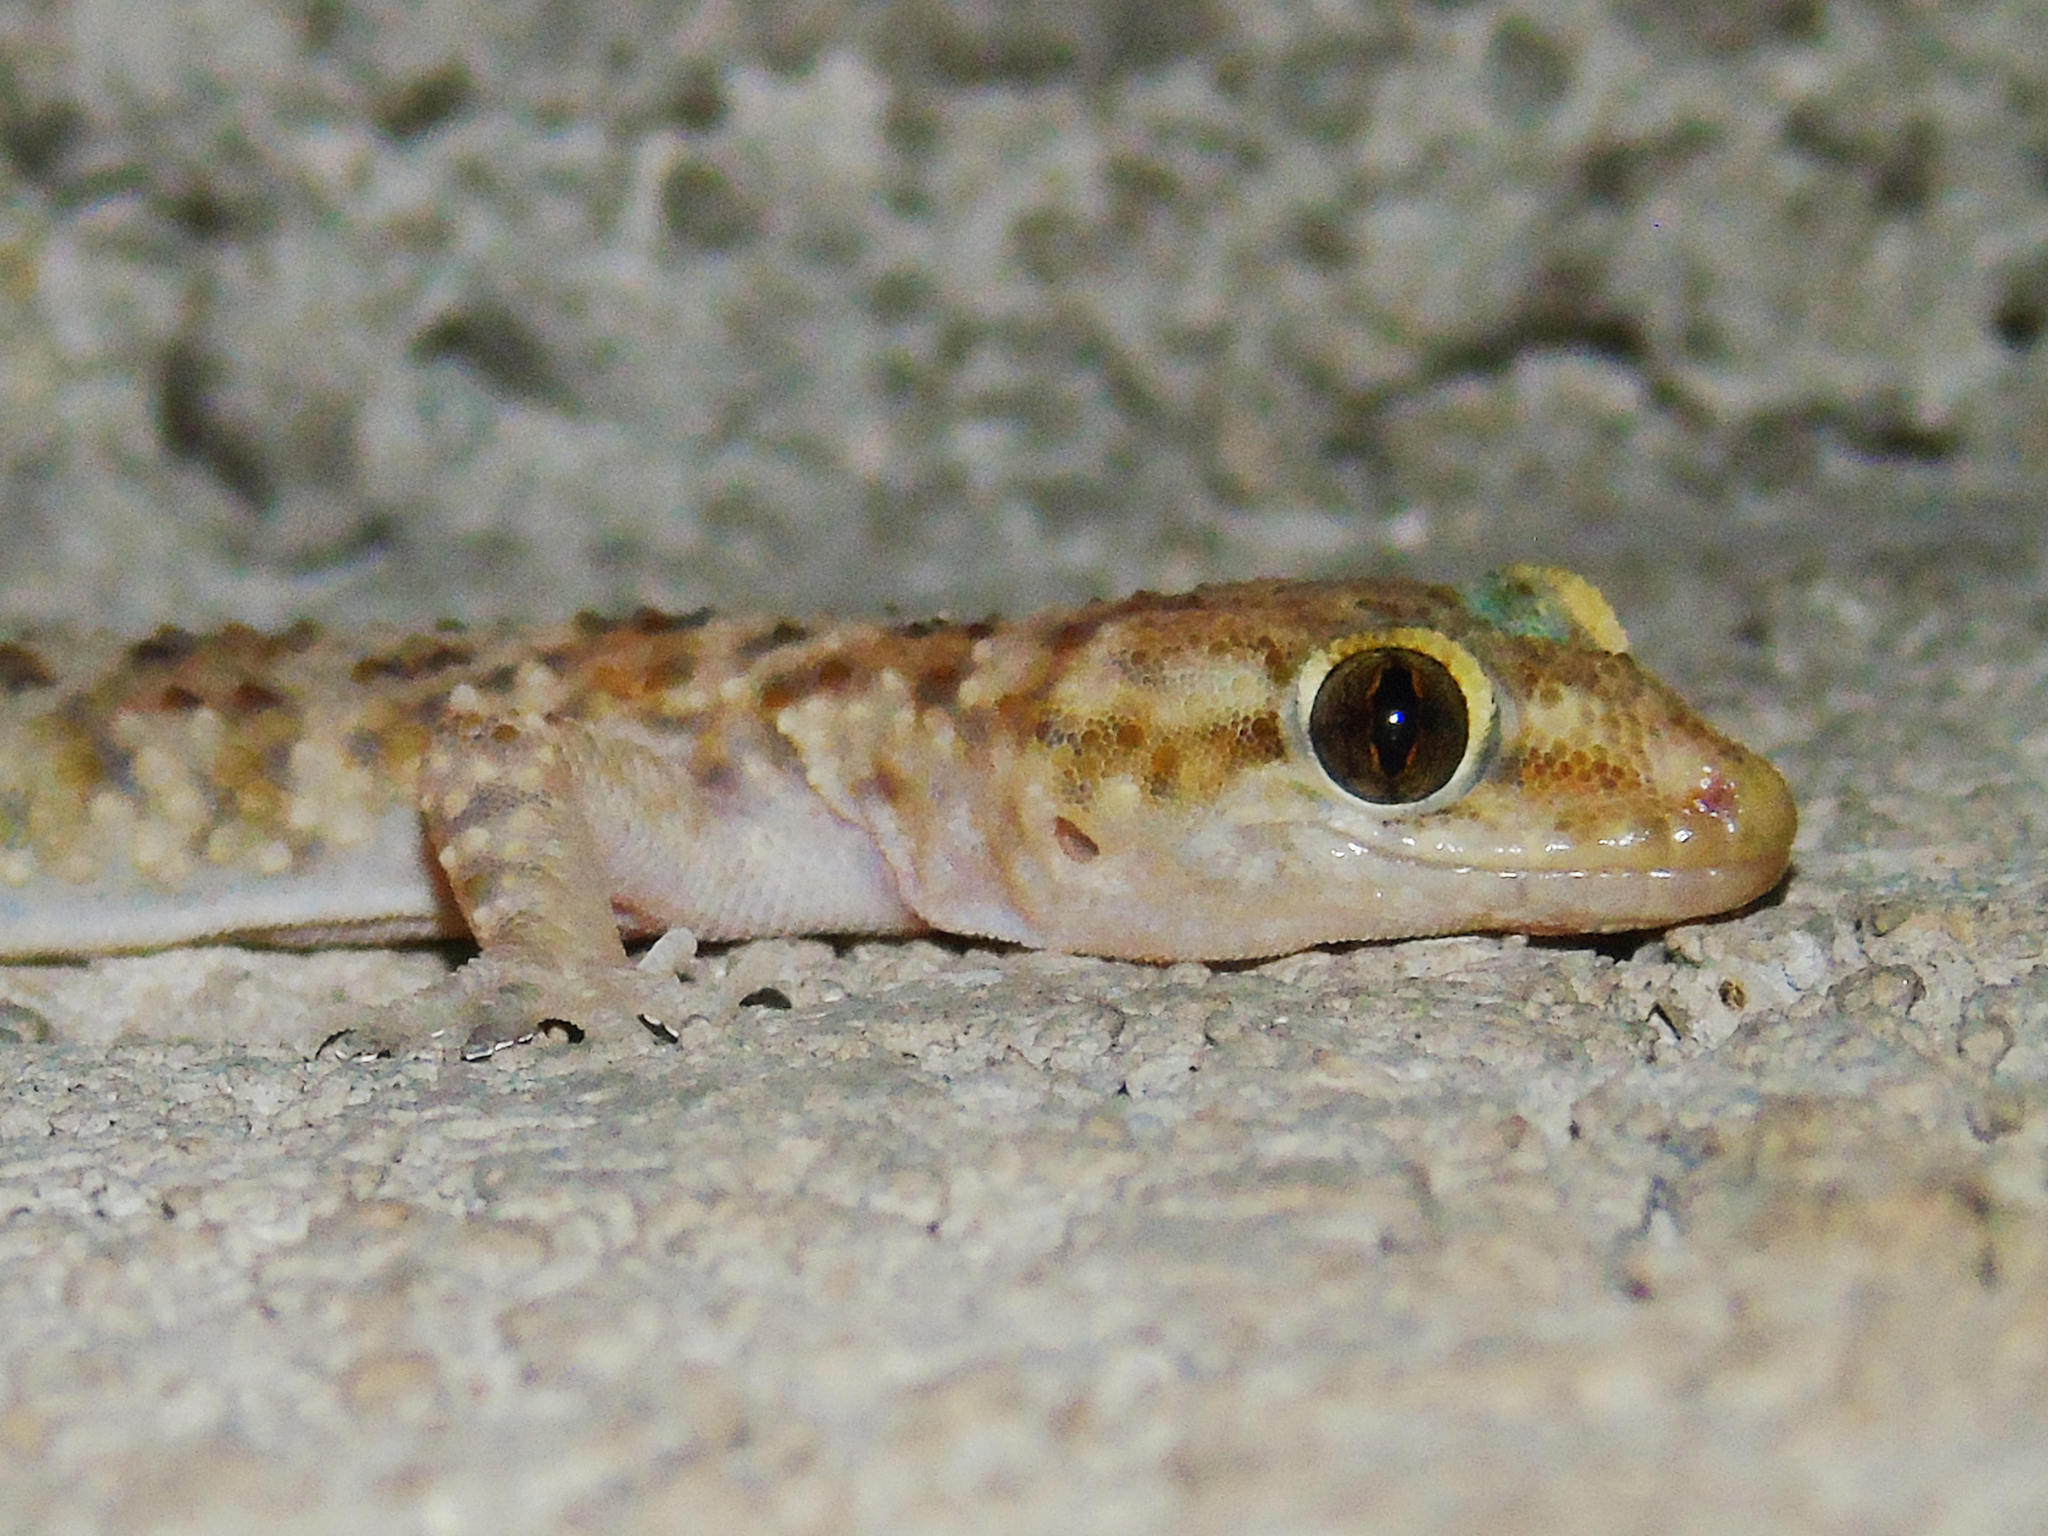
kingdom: Animalia
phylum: Chordata
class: Squamata
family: Gekkonidae
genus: Hemidactylus
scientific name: Hemidactylus turcicus
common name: Turkish gecko
